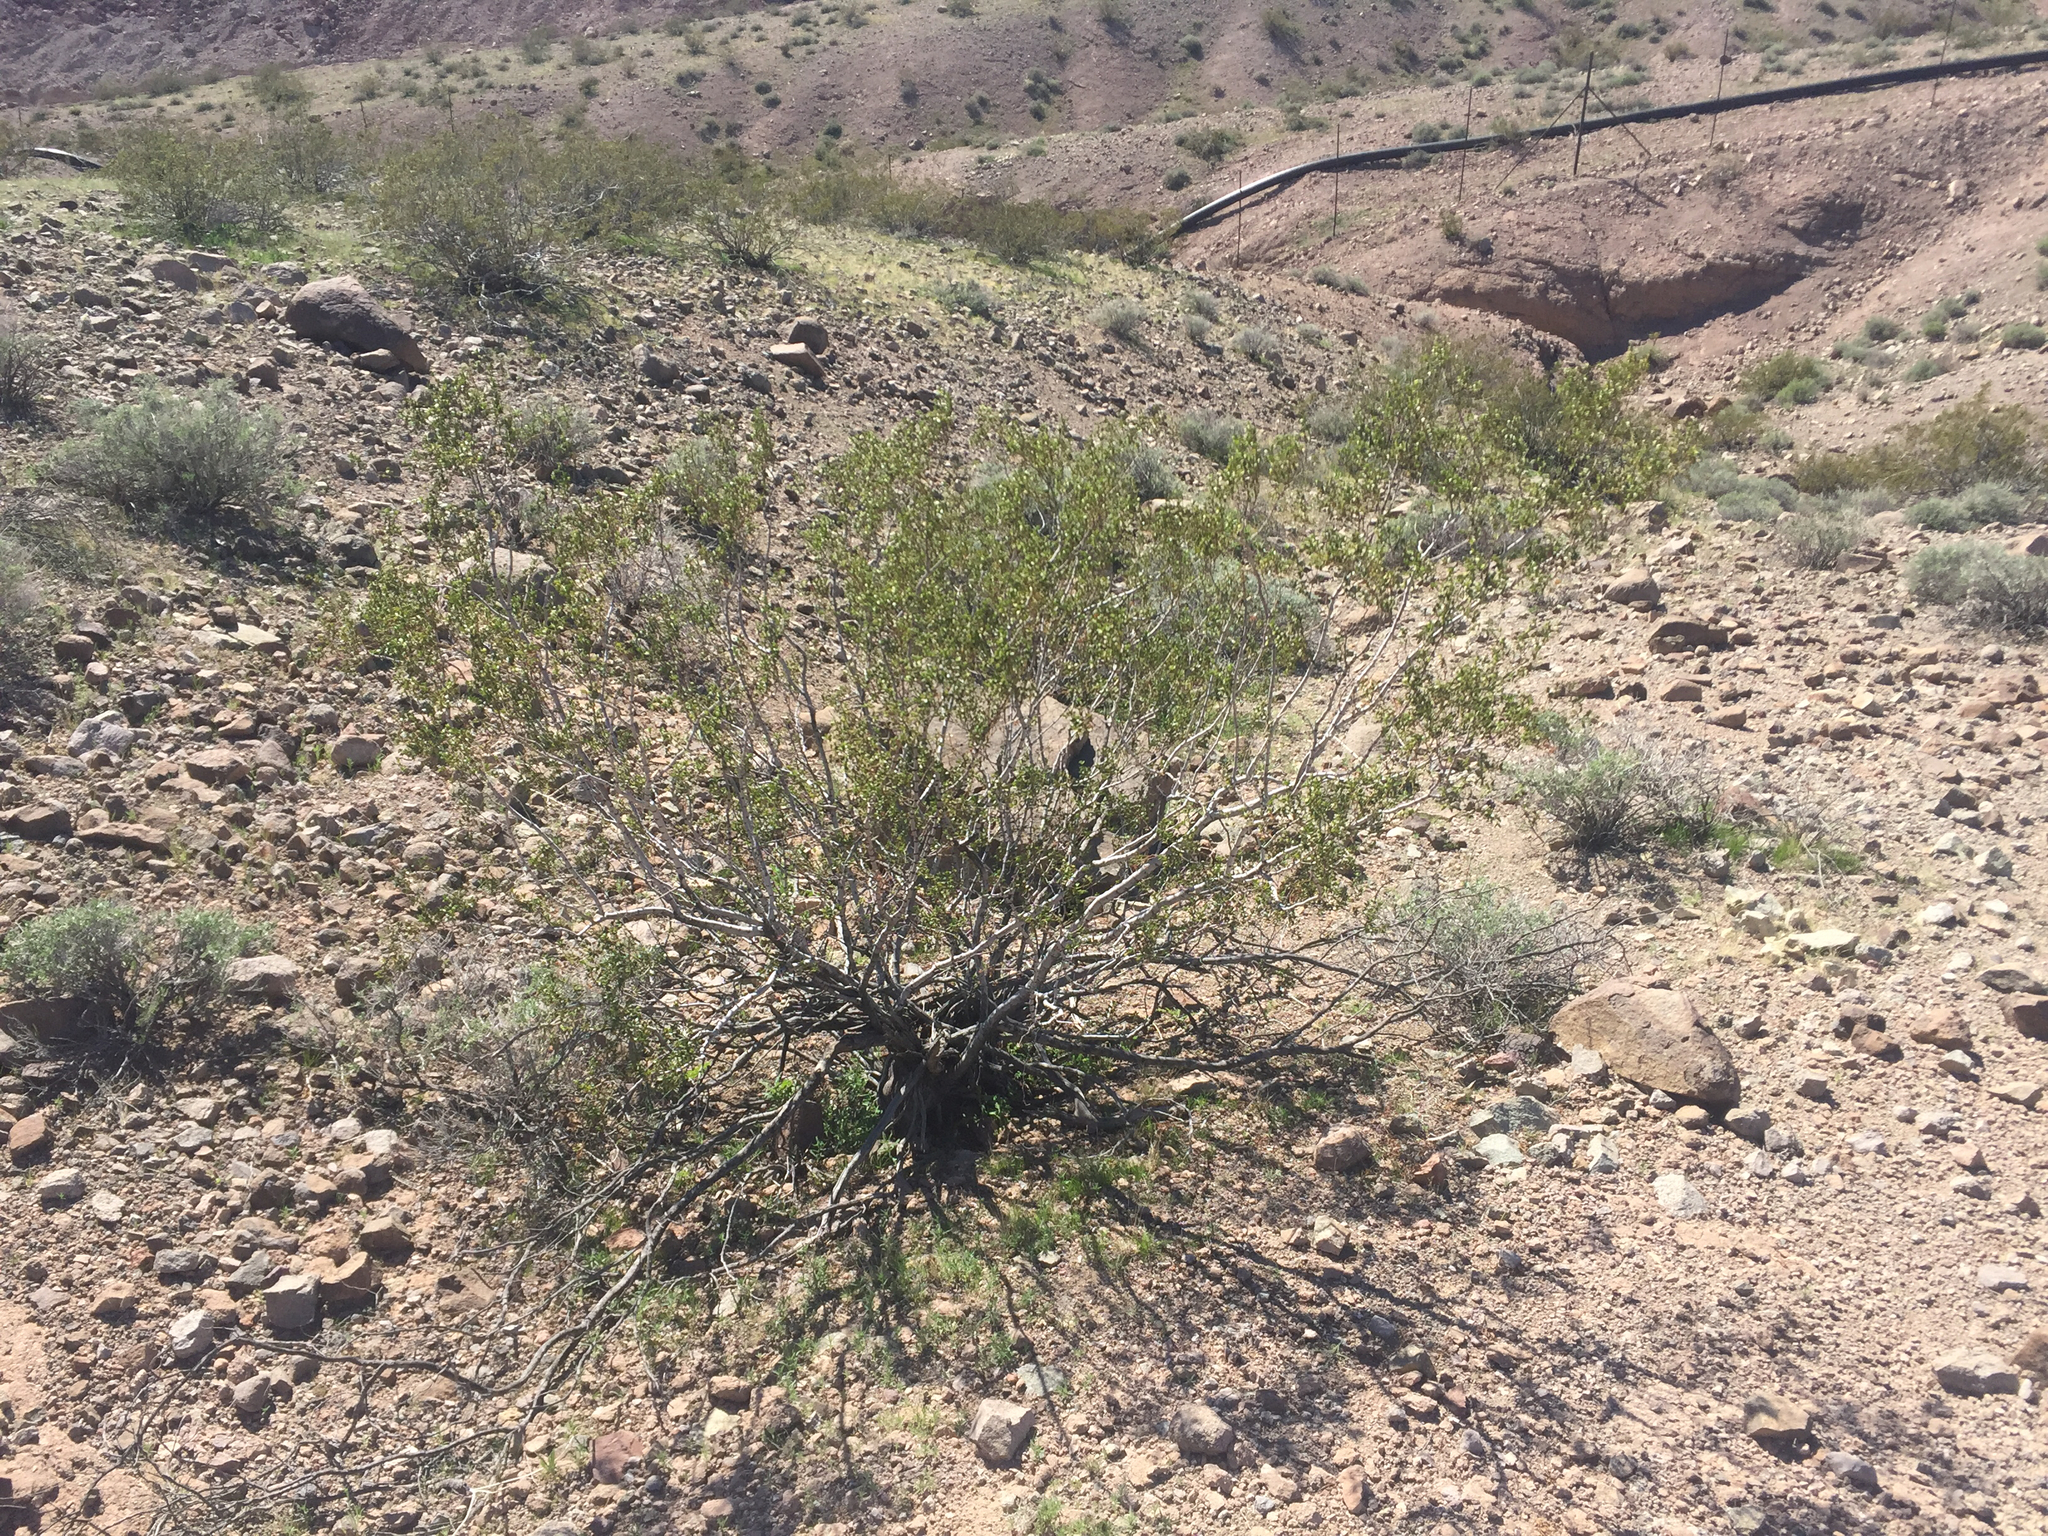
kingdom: Plantae
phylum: Tracheophyta
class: Magnoliopsida
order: Zygophyllales
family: Zygophyllaceae
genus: Larrea
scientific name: Larrea tridentata
